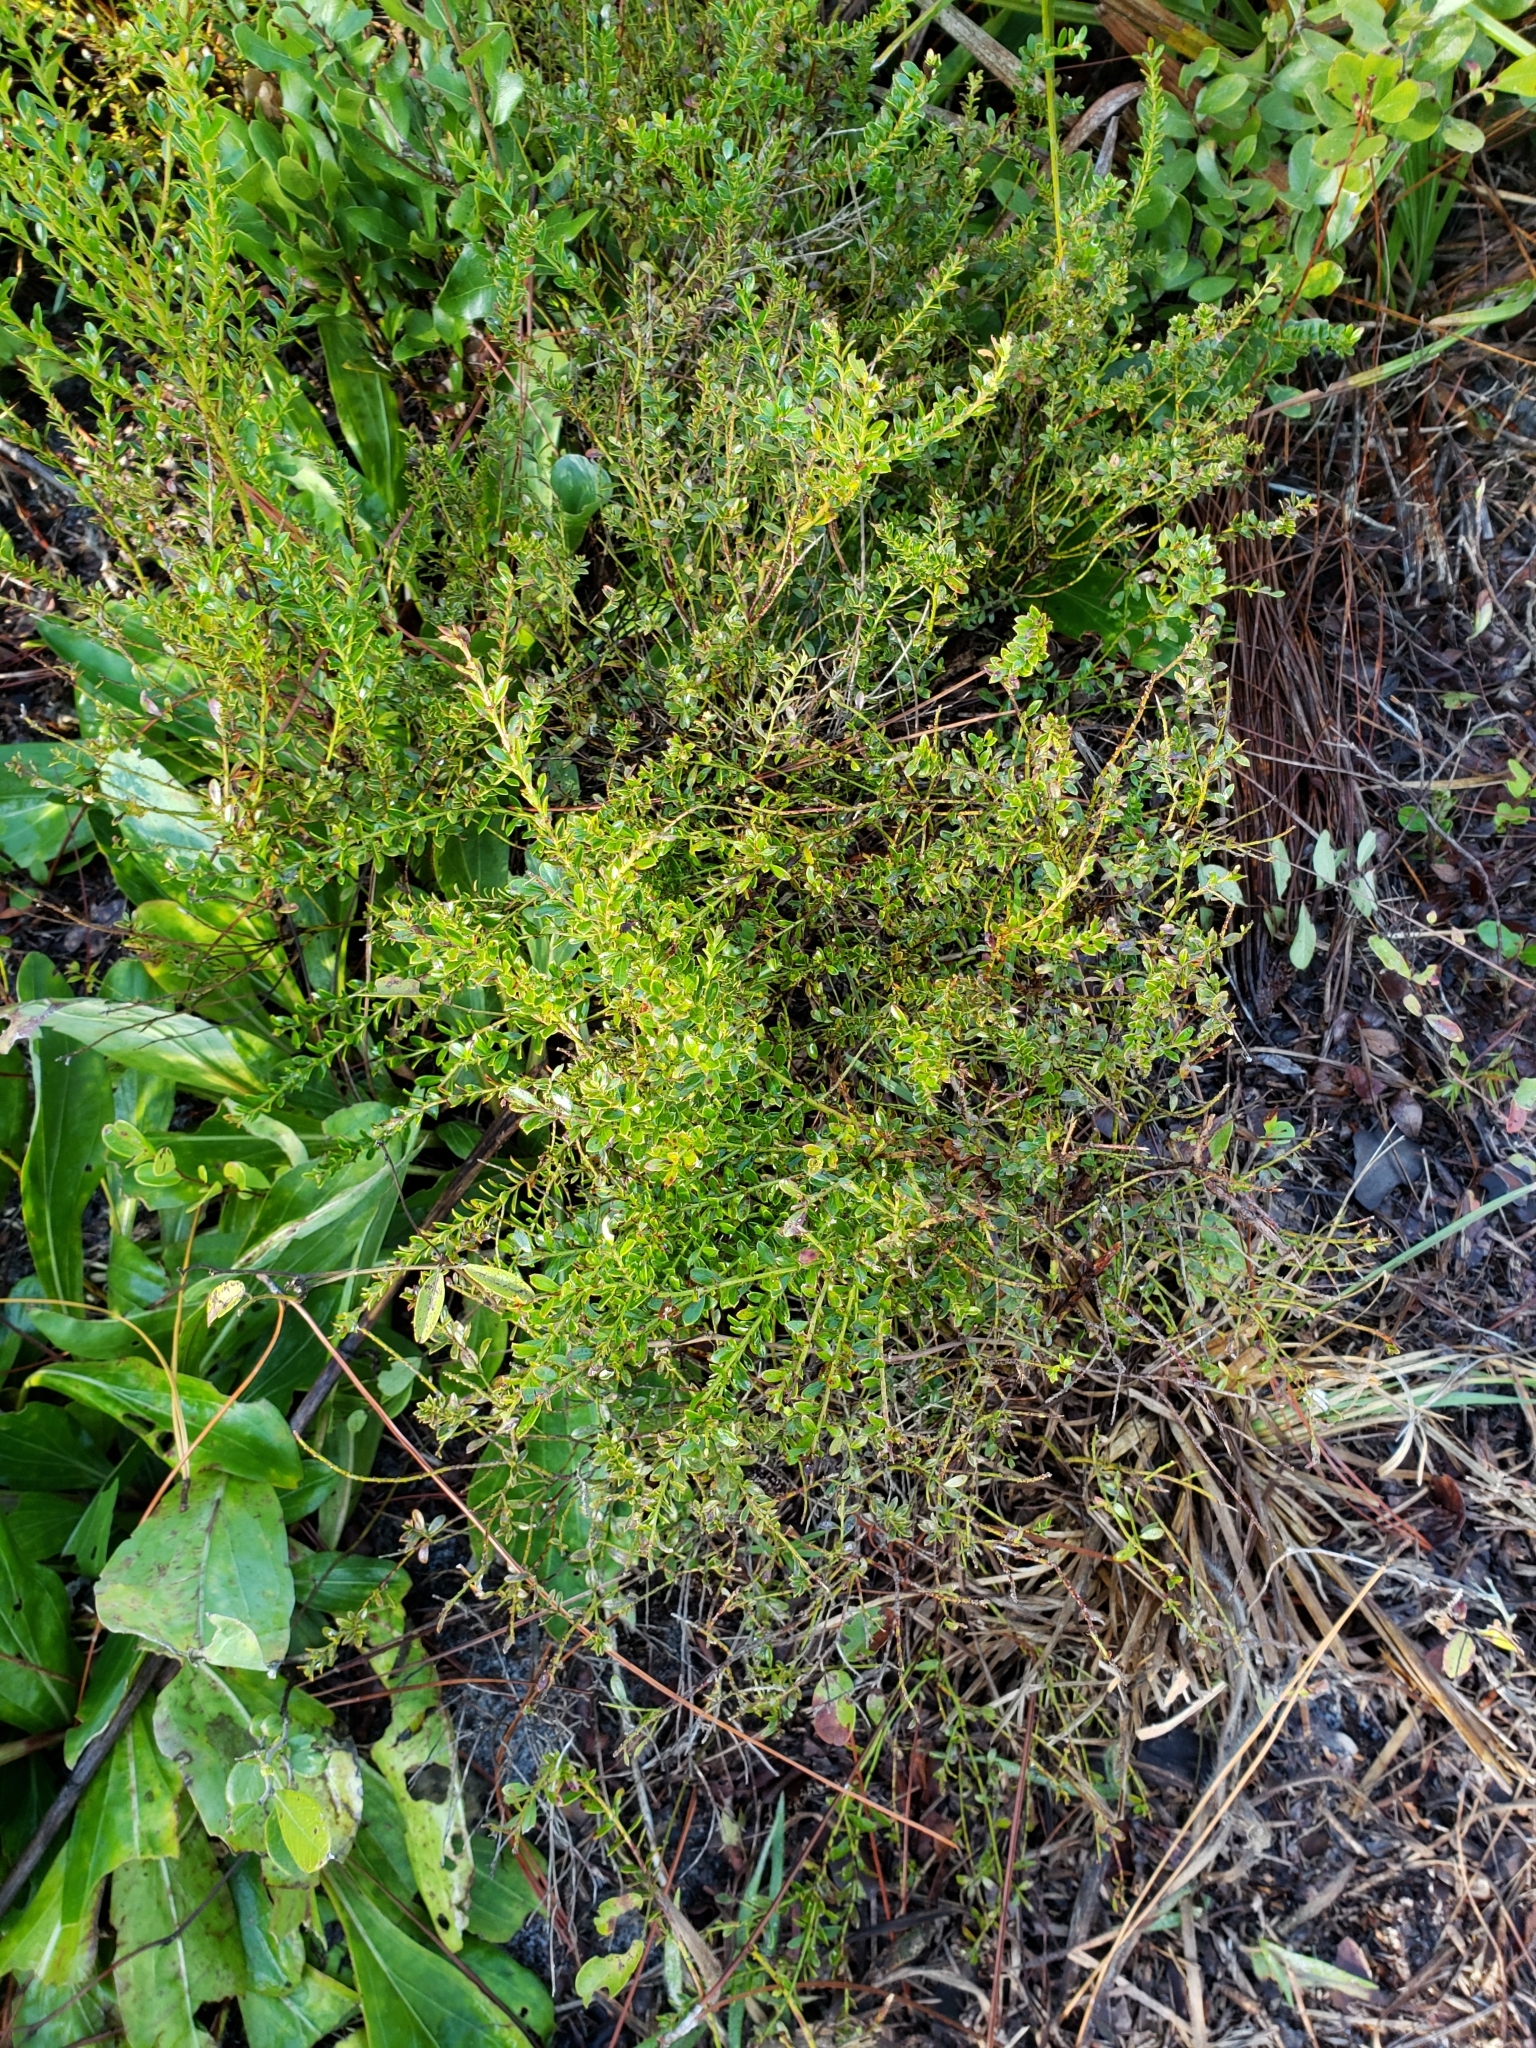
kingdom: Plantae
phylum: Tracheophyta
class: Magnoliopsida
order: Ericales
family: Ericaceae
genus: Vaccinium
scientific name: Vaccinium myrsinites
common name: Evergreen blueberry
